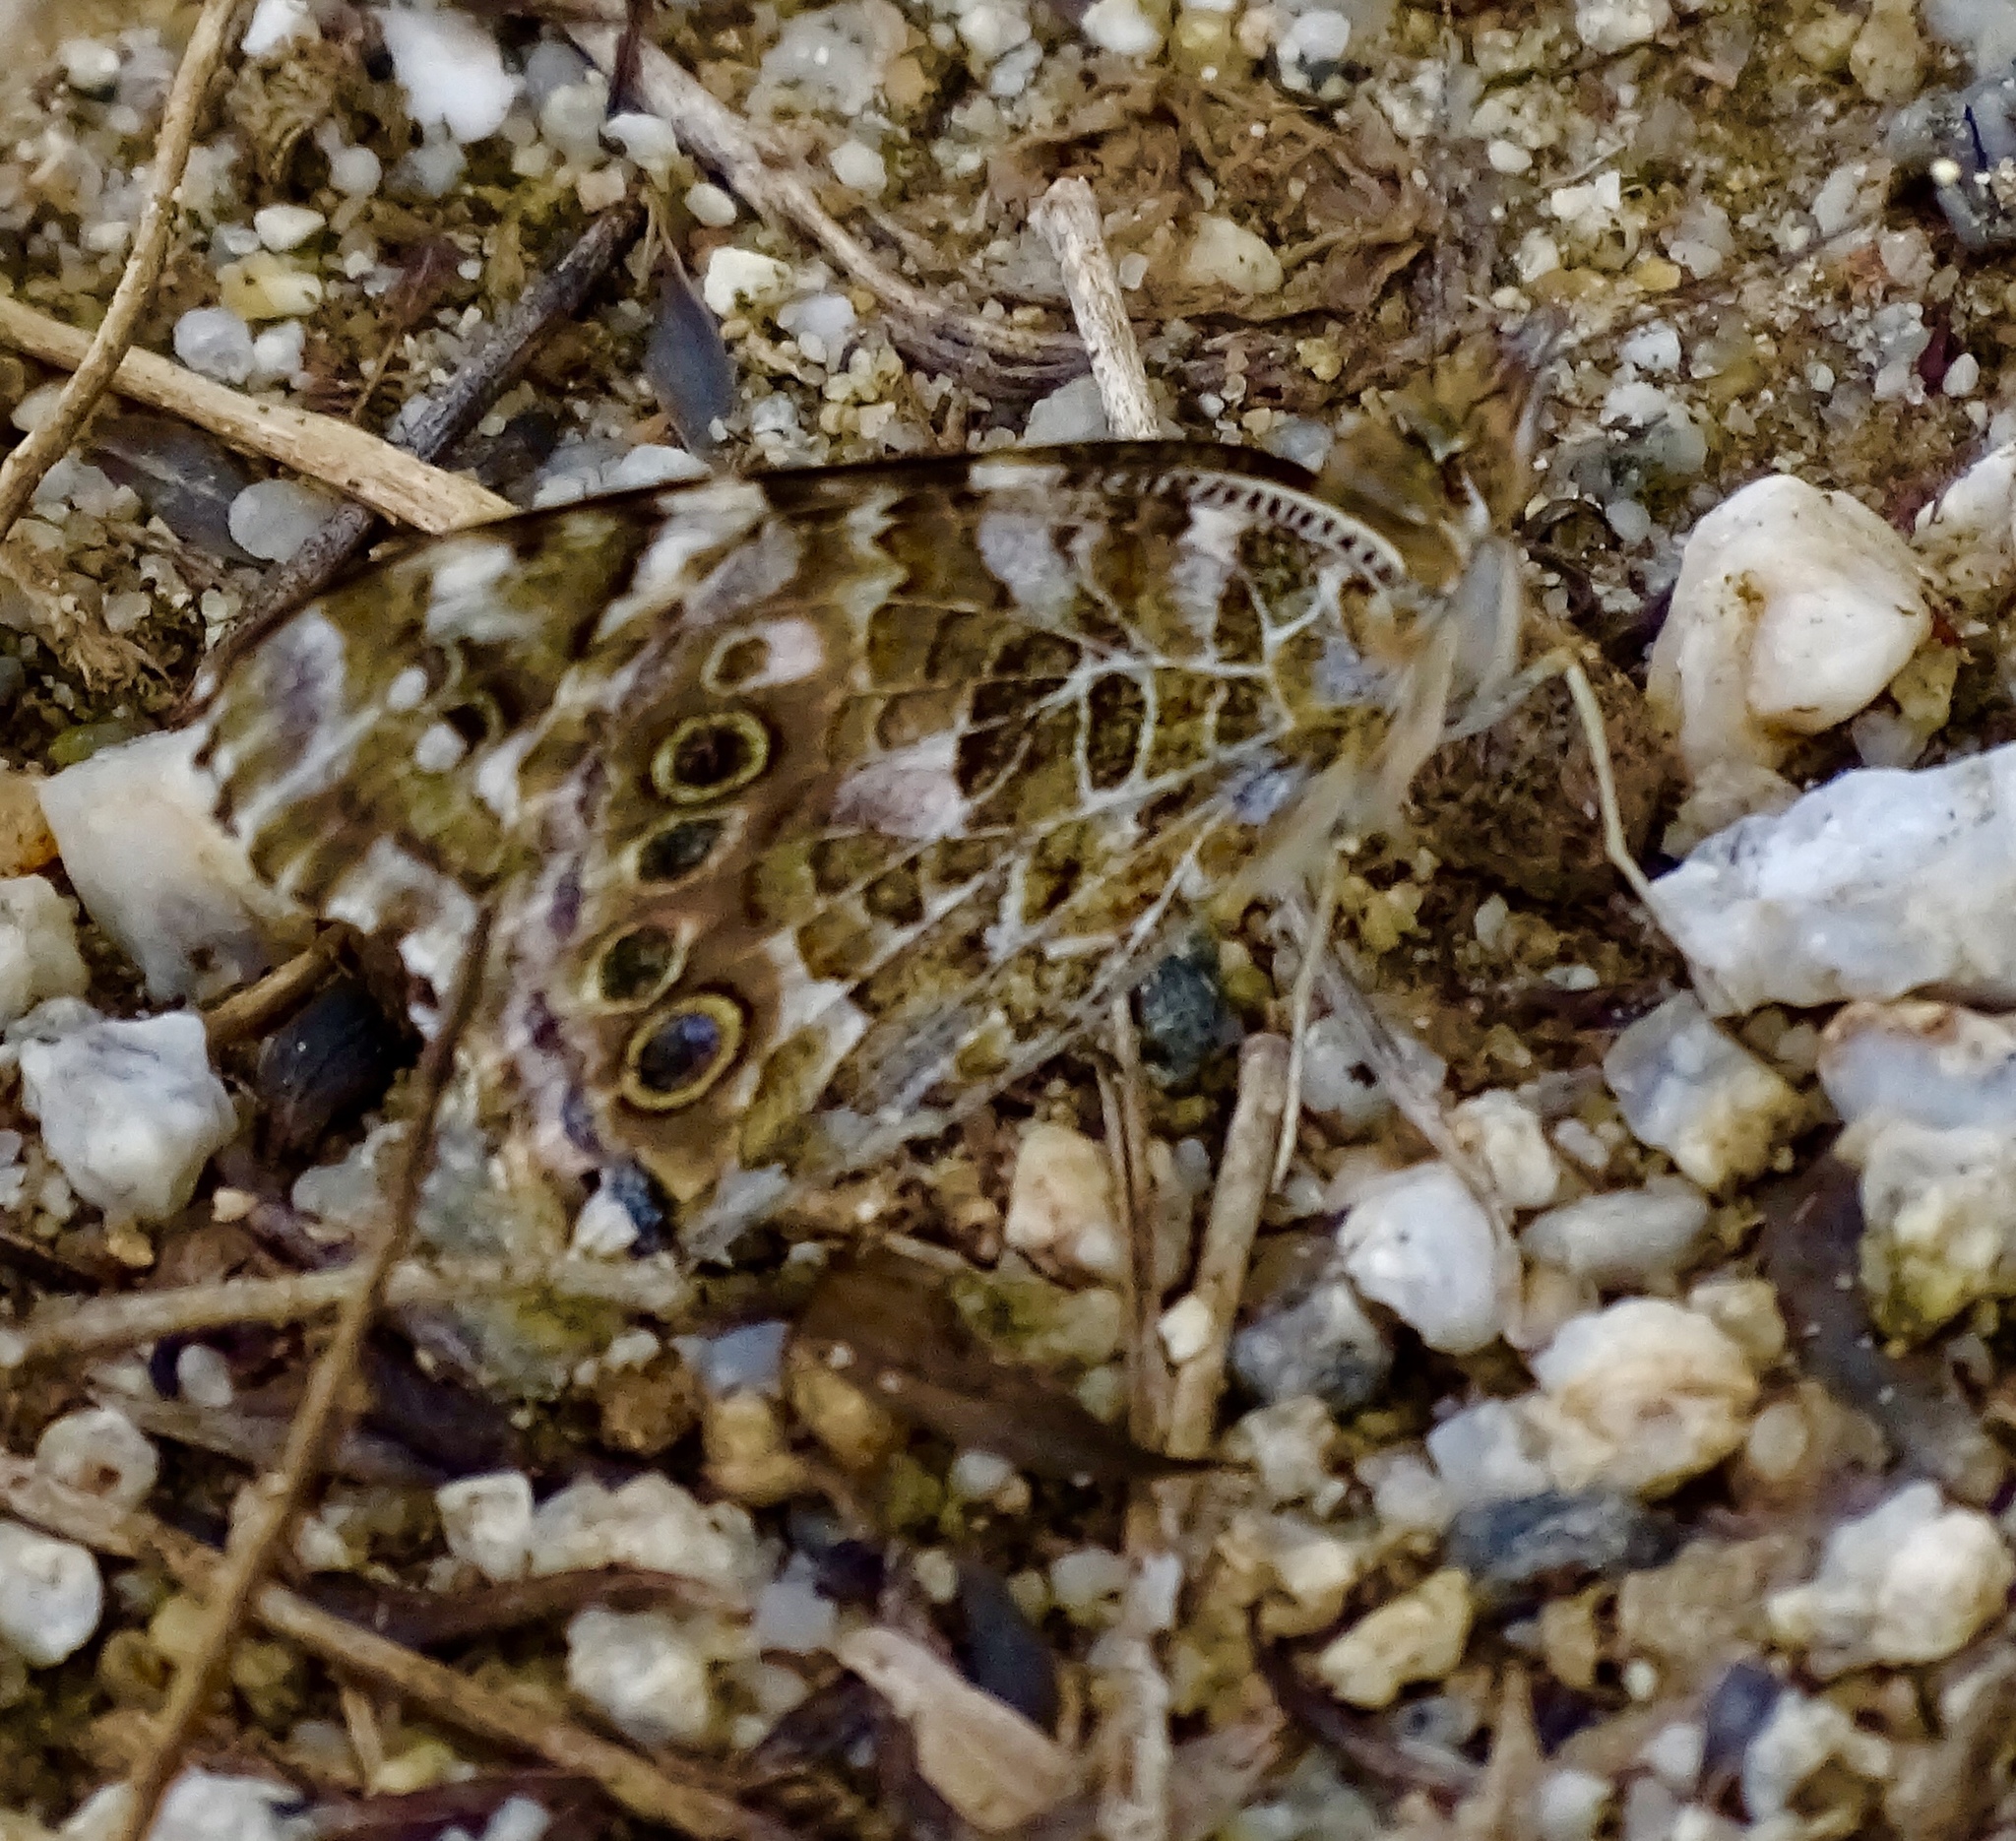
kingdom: Animalia
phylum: Arthropoda
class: Insecta
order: Lepidoptera
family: Nymphalidae
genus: Vanessa
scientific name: Vanessa cardui
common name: Painted lady
